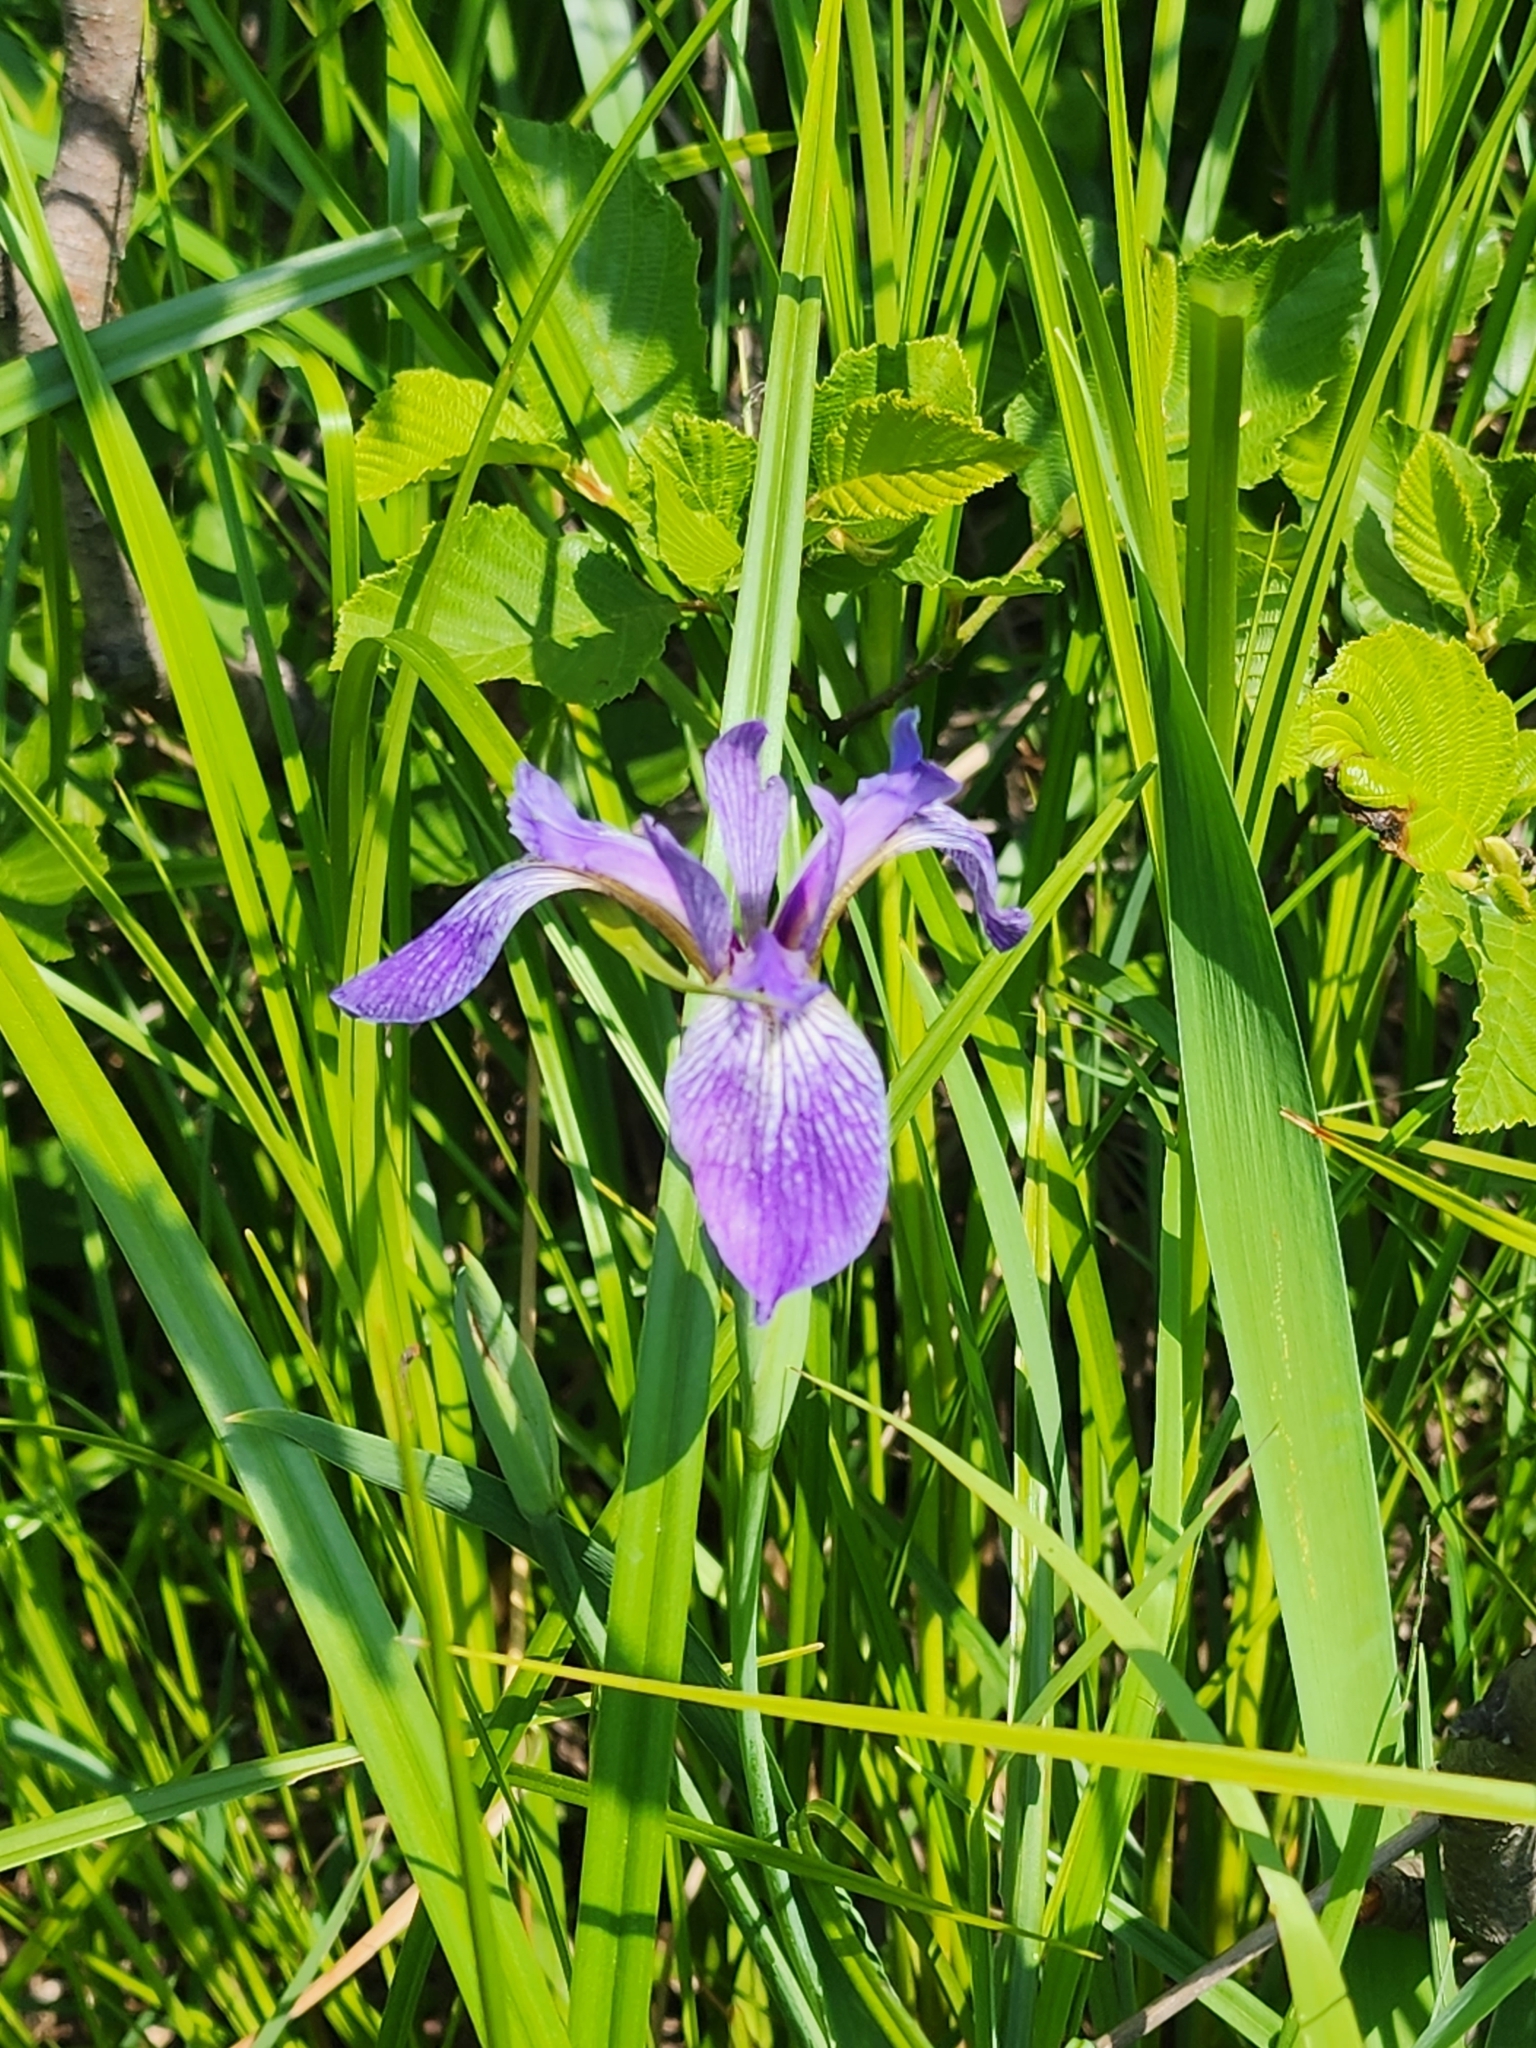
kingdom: Plantae
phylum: Tracheophyta
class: Liliopsida
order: Asparagales
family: Iridaceae
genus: Iris
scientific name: Iris versicolor
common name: Purple iris
